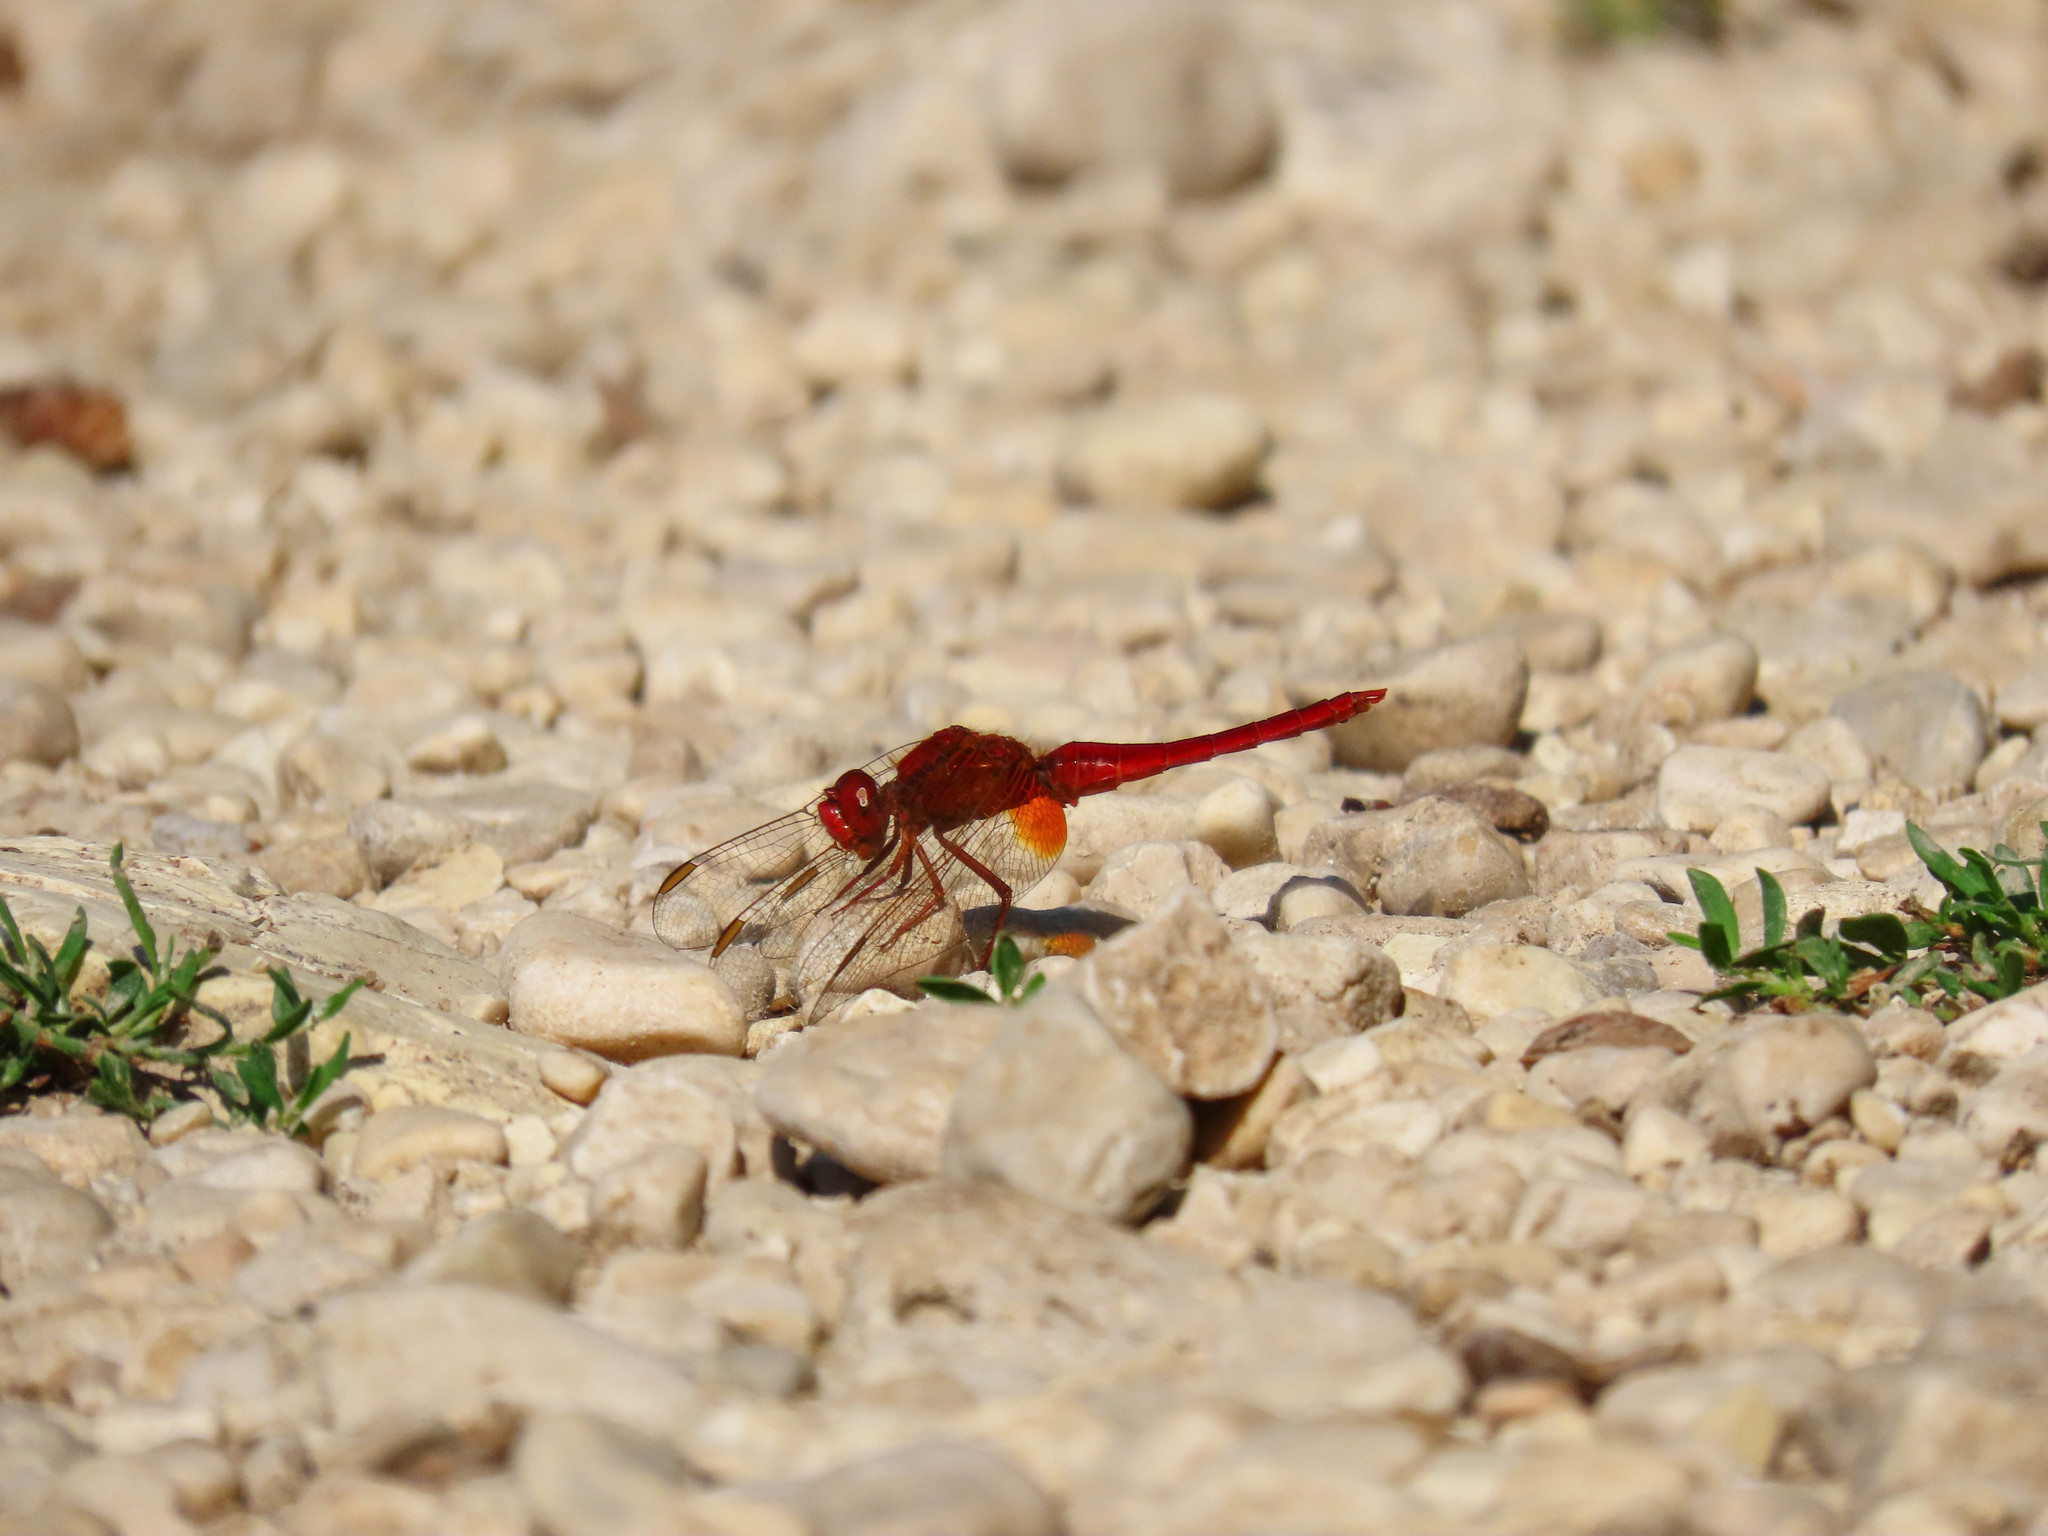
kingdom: Animalia
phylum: Arthropoda
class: Insecta
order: Odonata
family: Libellulidae
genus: Crocothemis
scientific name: Crocothemis erythraea
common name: Scarlet dragonfly
